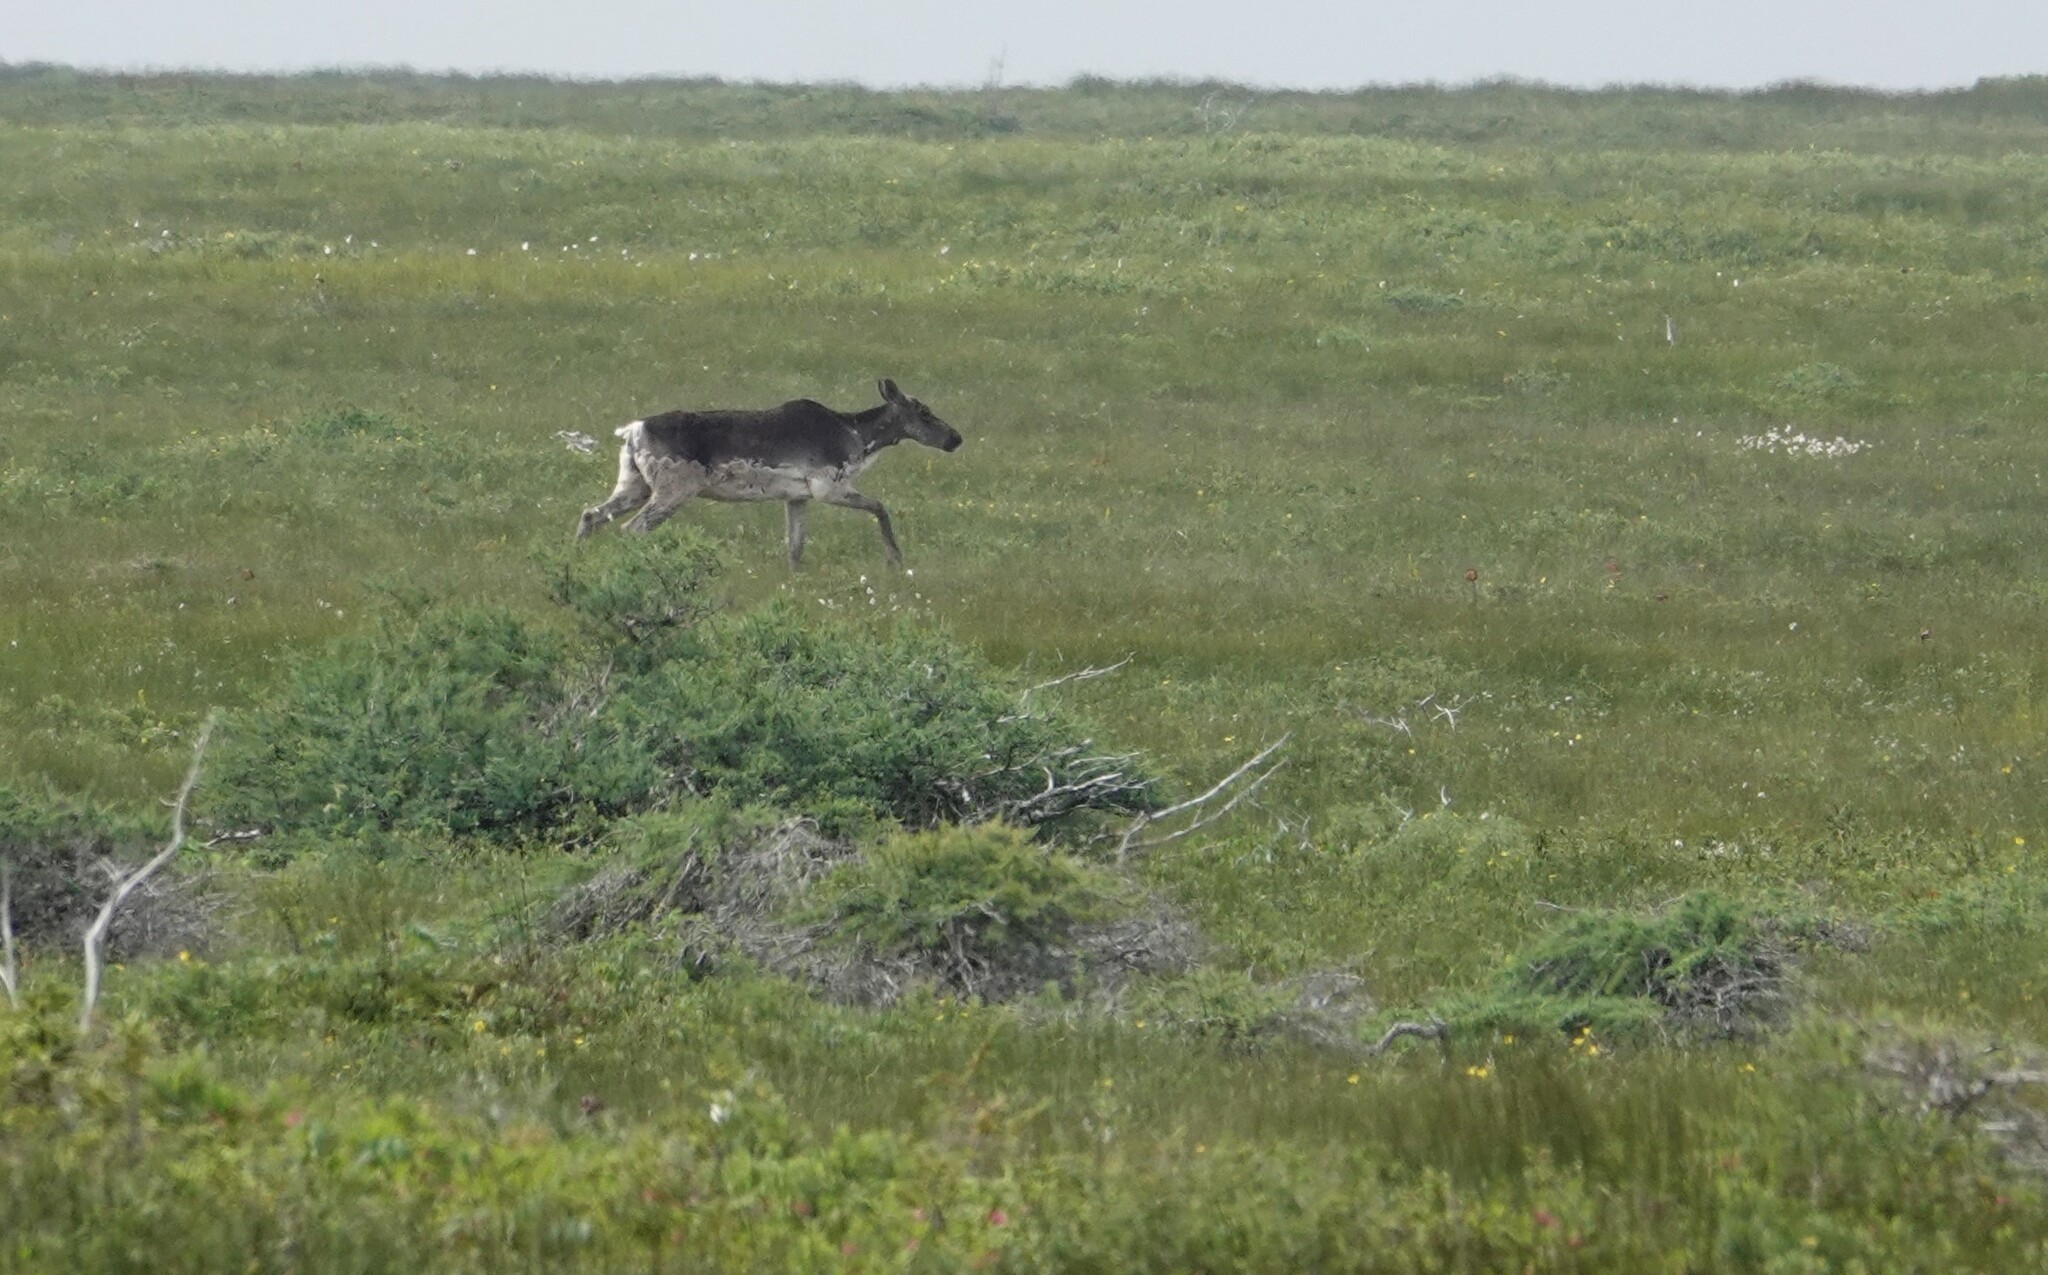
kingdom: Animalia
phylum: Chordata
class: Mammalia
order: Artiodactyla
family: Cervidae
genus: Rangifer
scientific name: Rangifer tarandus
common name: Reindeer
